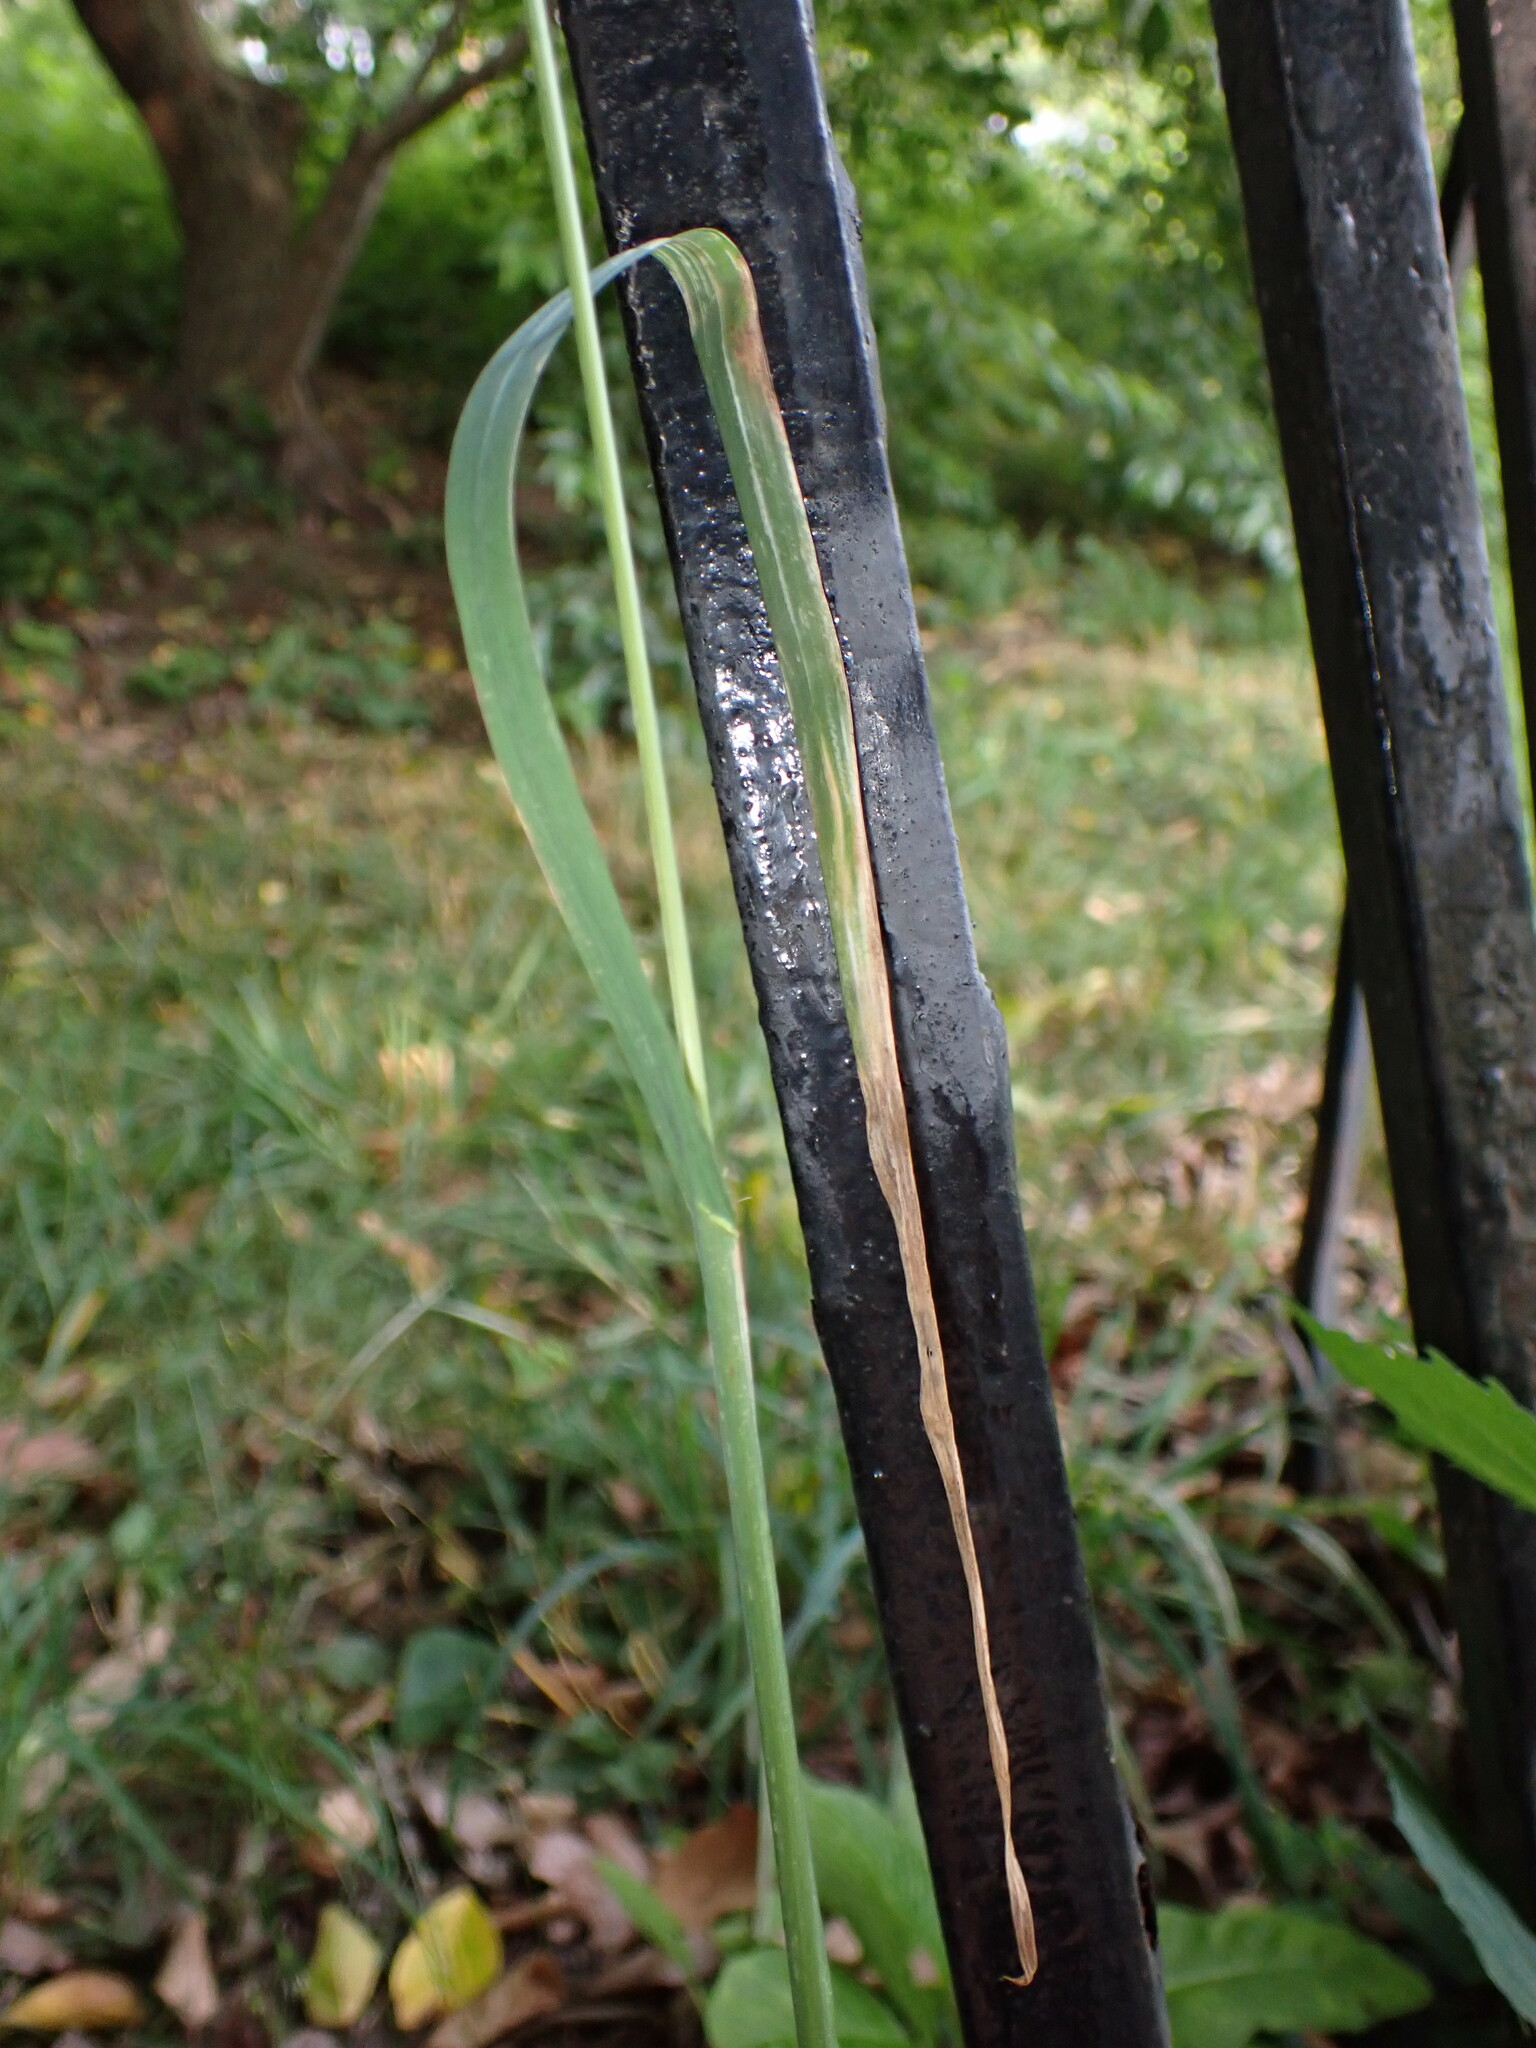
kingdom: Plantae
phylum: Tracheophyta
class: Liliopsida
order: Poales
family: Poaceae
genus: Dactylis
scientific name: Dactylis glomerata
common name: Orchardgrass
